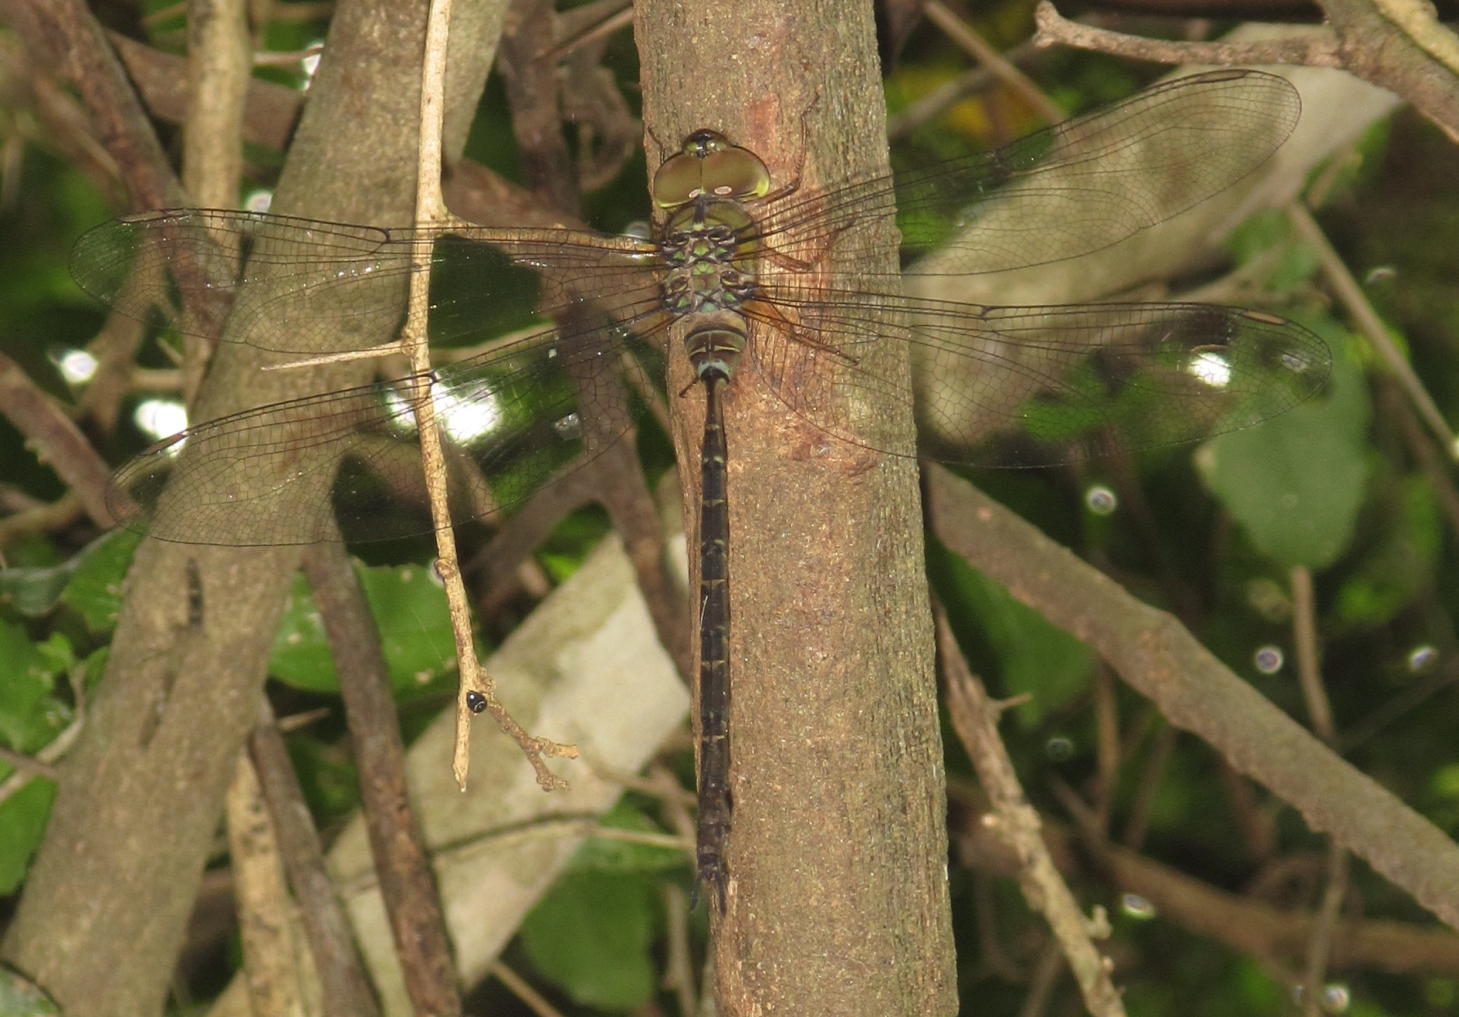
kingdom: Animalia
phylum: Arthropoda
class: Insecta
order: Odonata
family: Aeshnidae
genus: Gynacantha
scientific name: Gynacantha usambarica
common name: Eastern duskhawker
